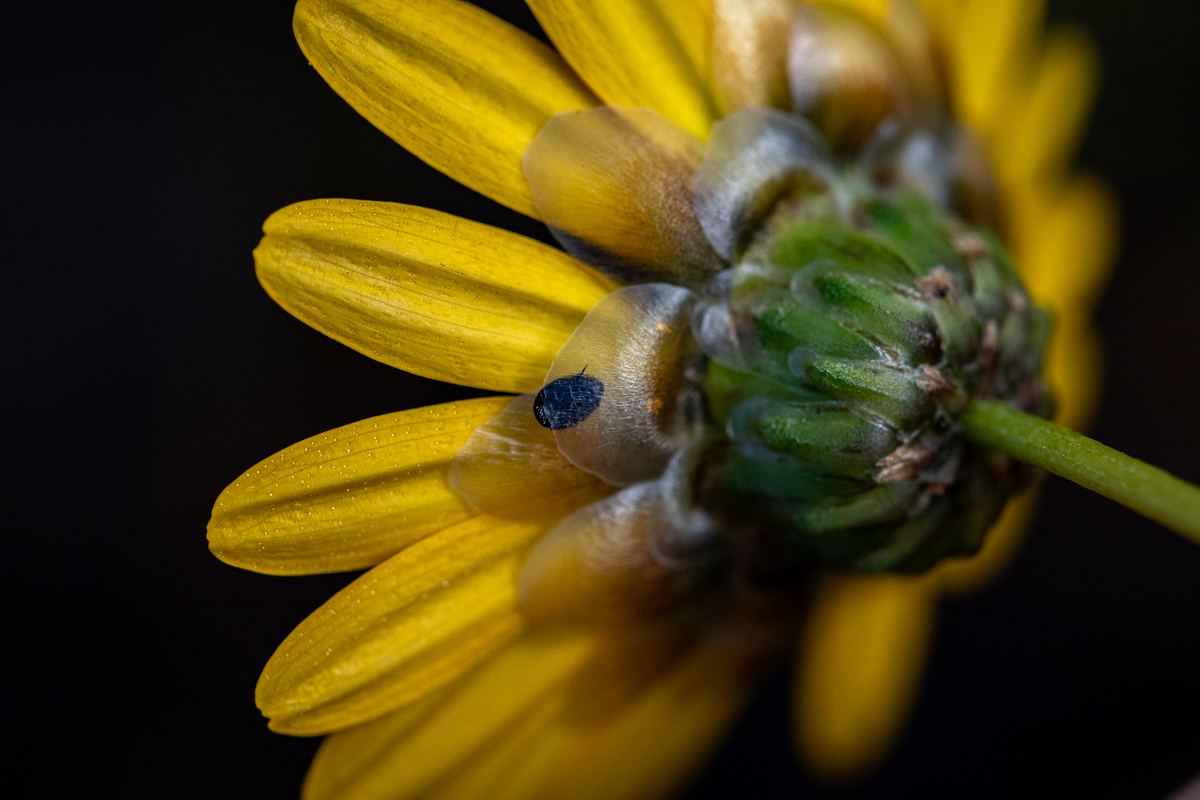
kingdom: Plantae
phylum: Tracheophyta
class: Magnoliopsida
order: Asterales
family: Asteraceae
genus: Ursinia
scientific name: Ursinia paleacea
